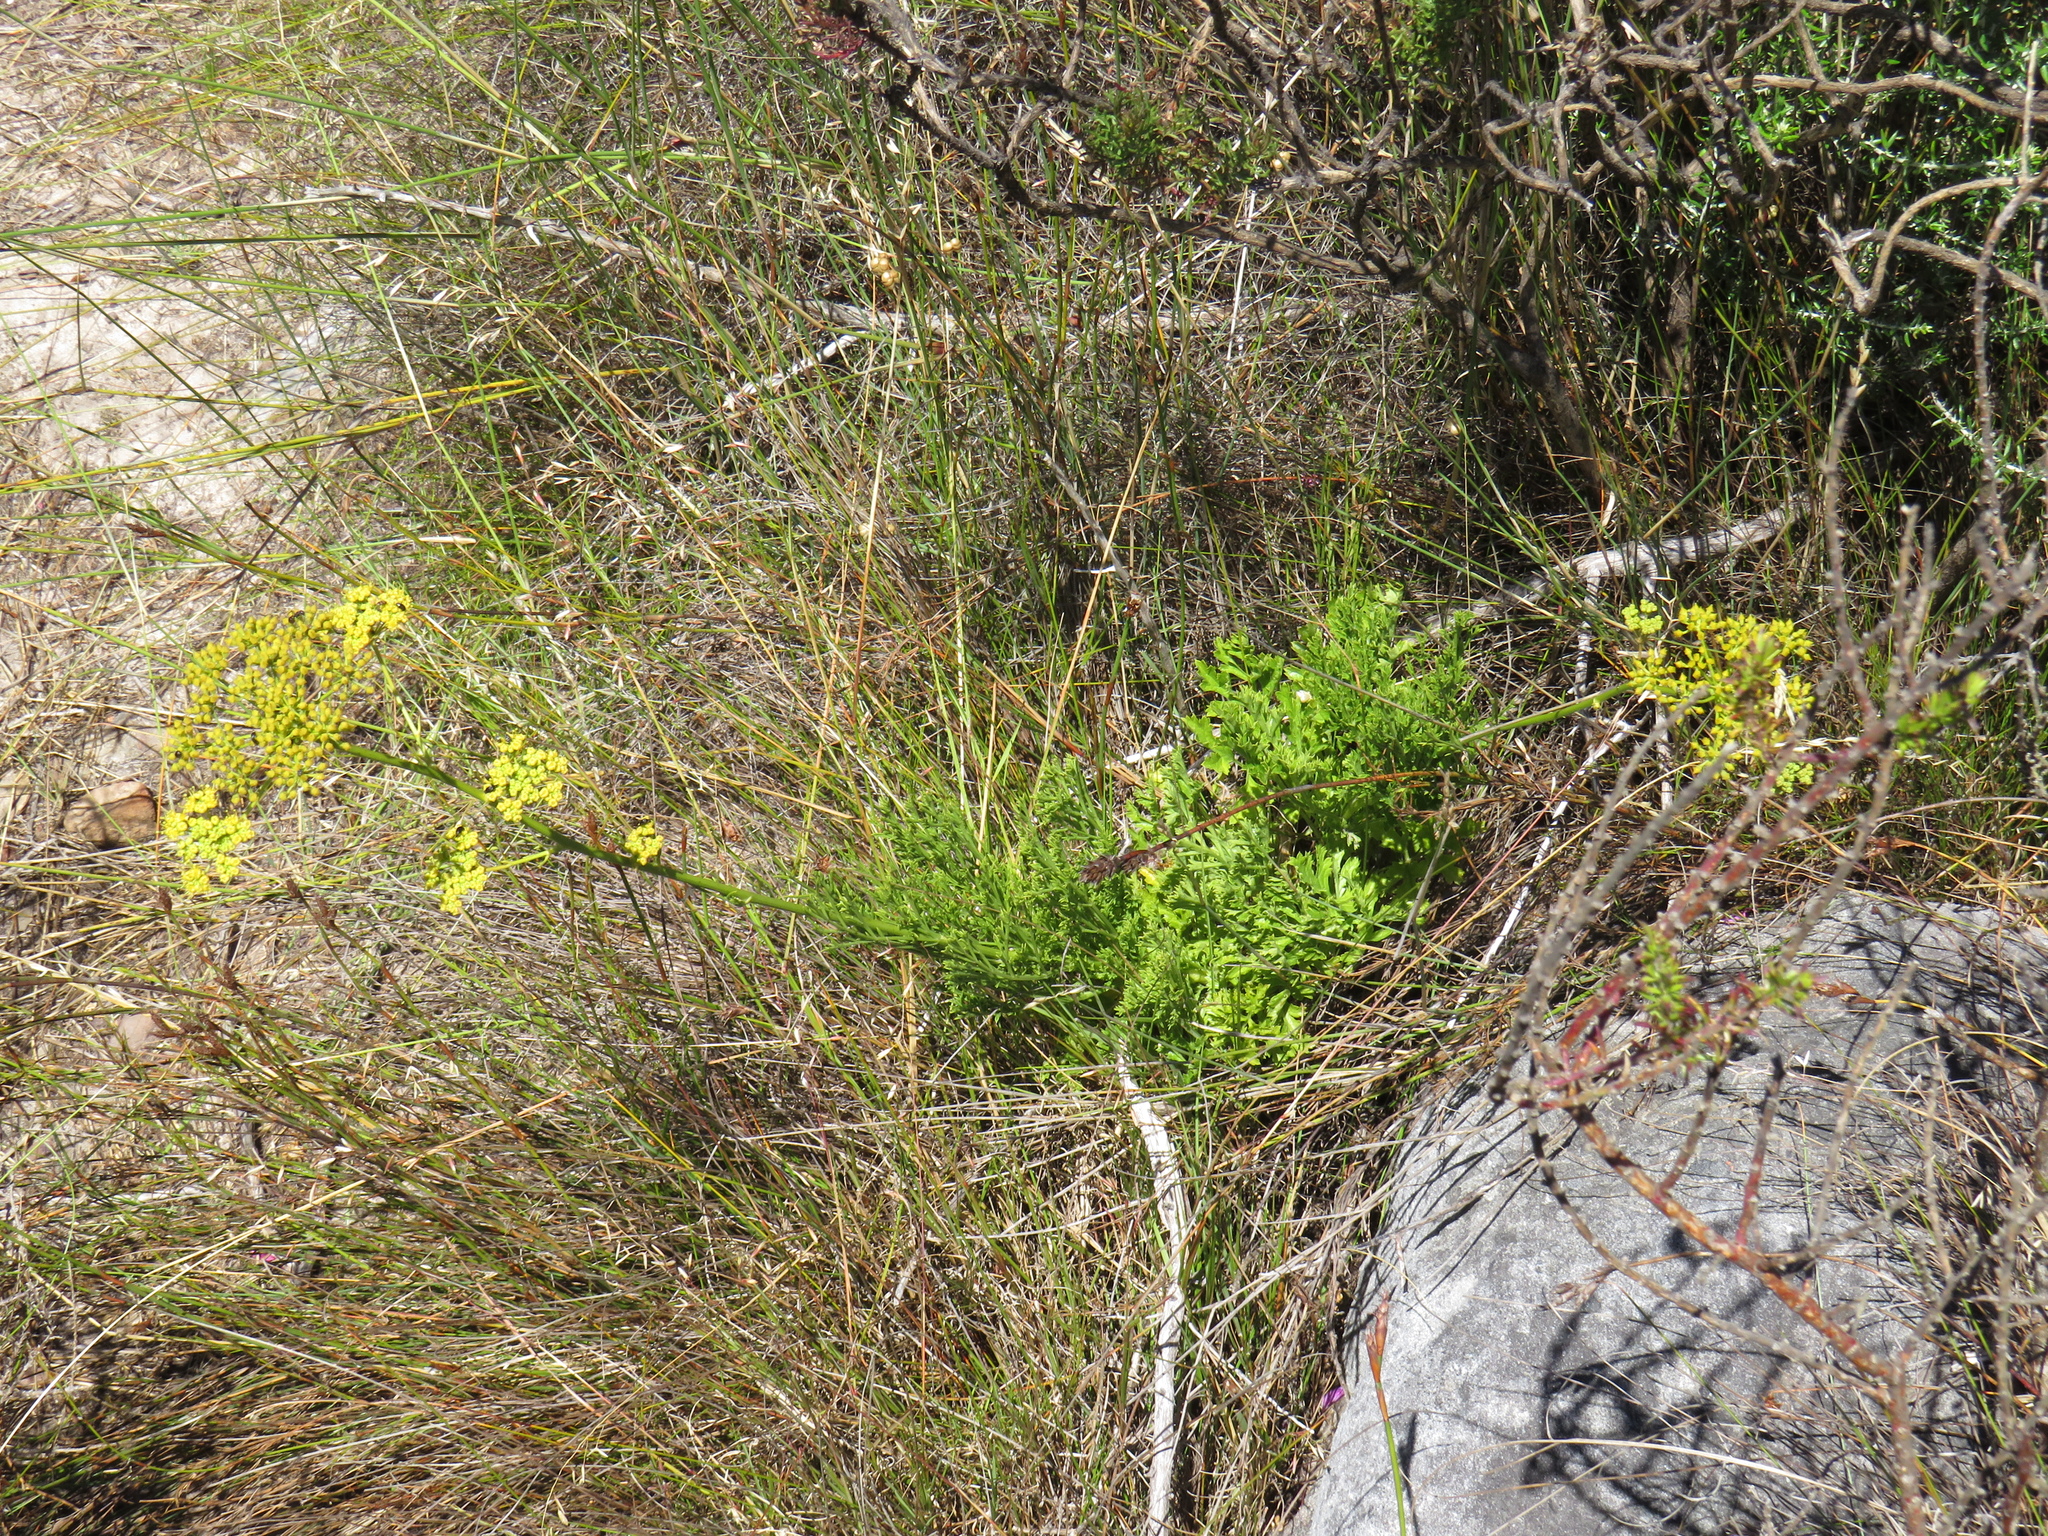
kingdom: Plantae
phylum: Tracheophyta
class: Magnoliopsida
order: Apiales
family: Apiaceae
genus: Glia
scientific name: Glia prolifera
